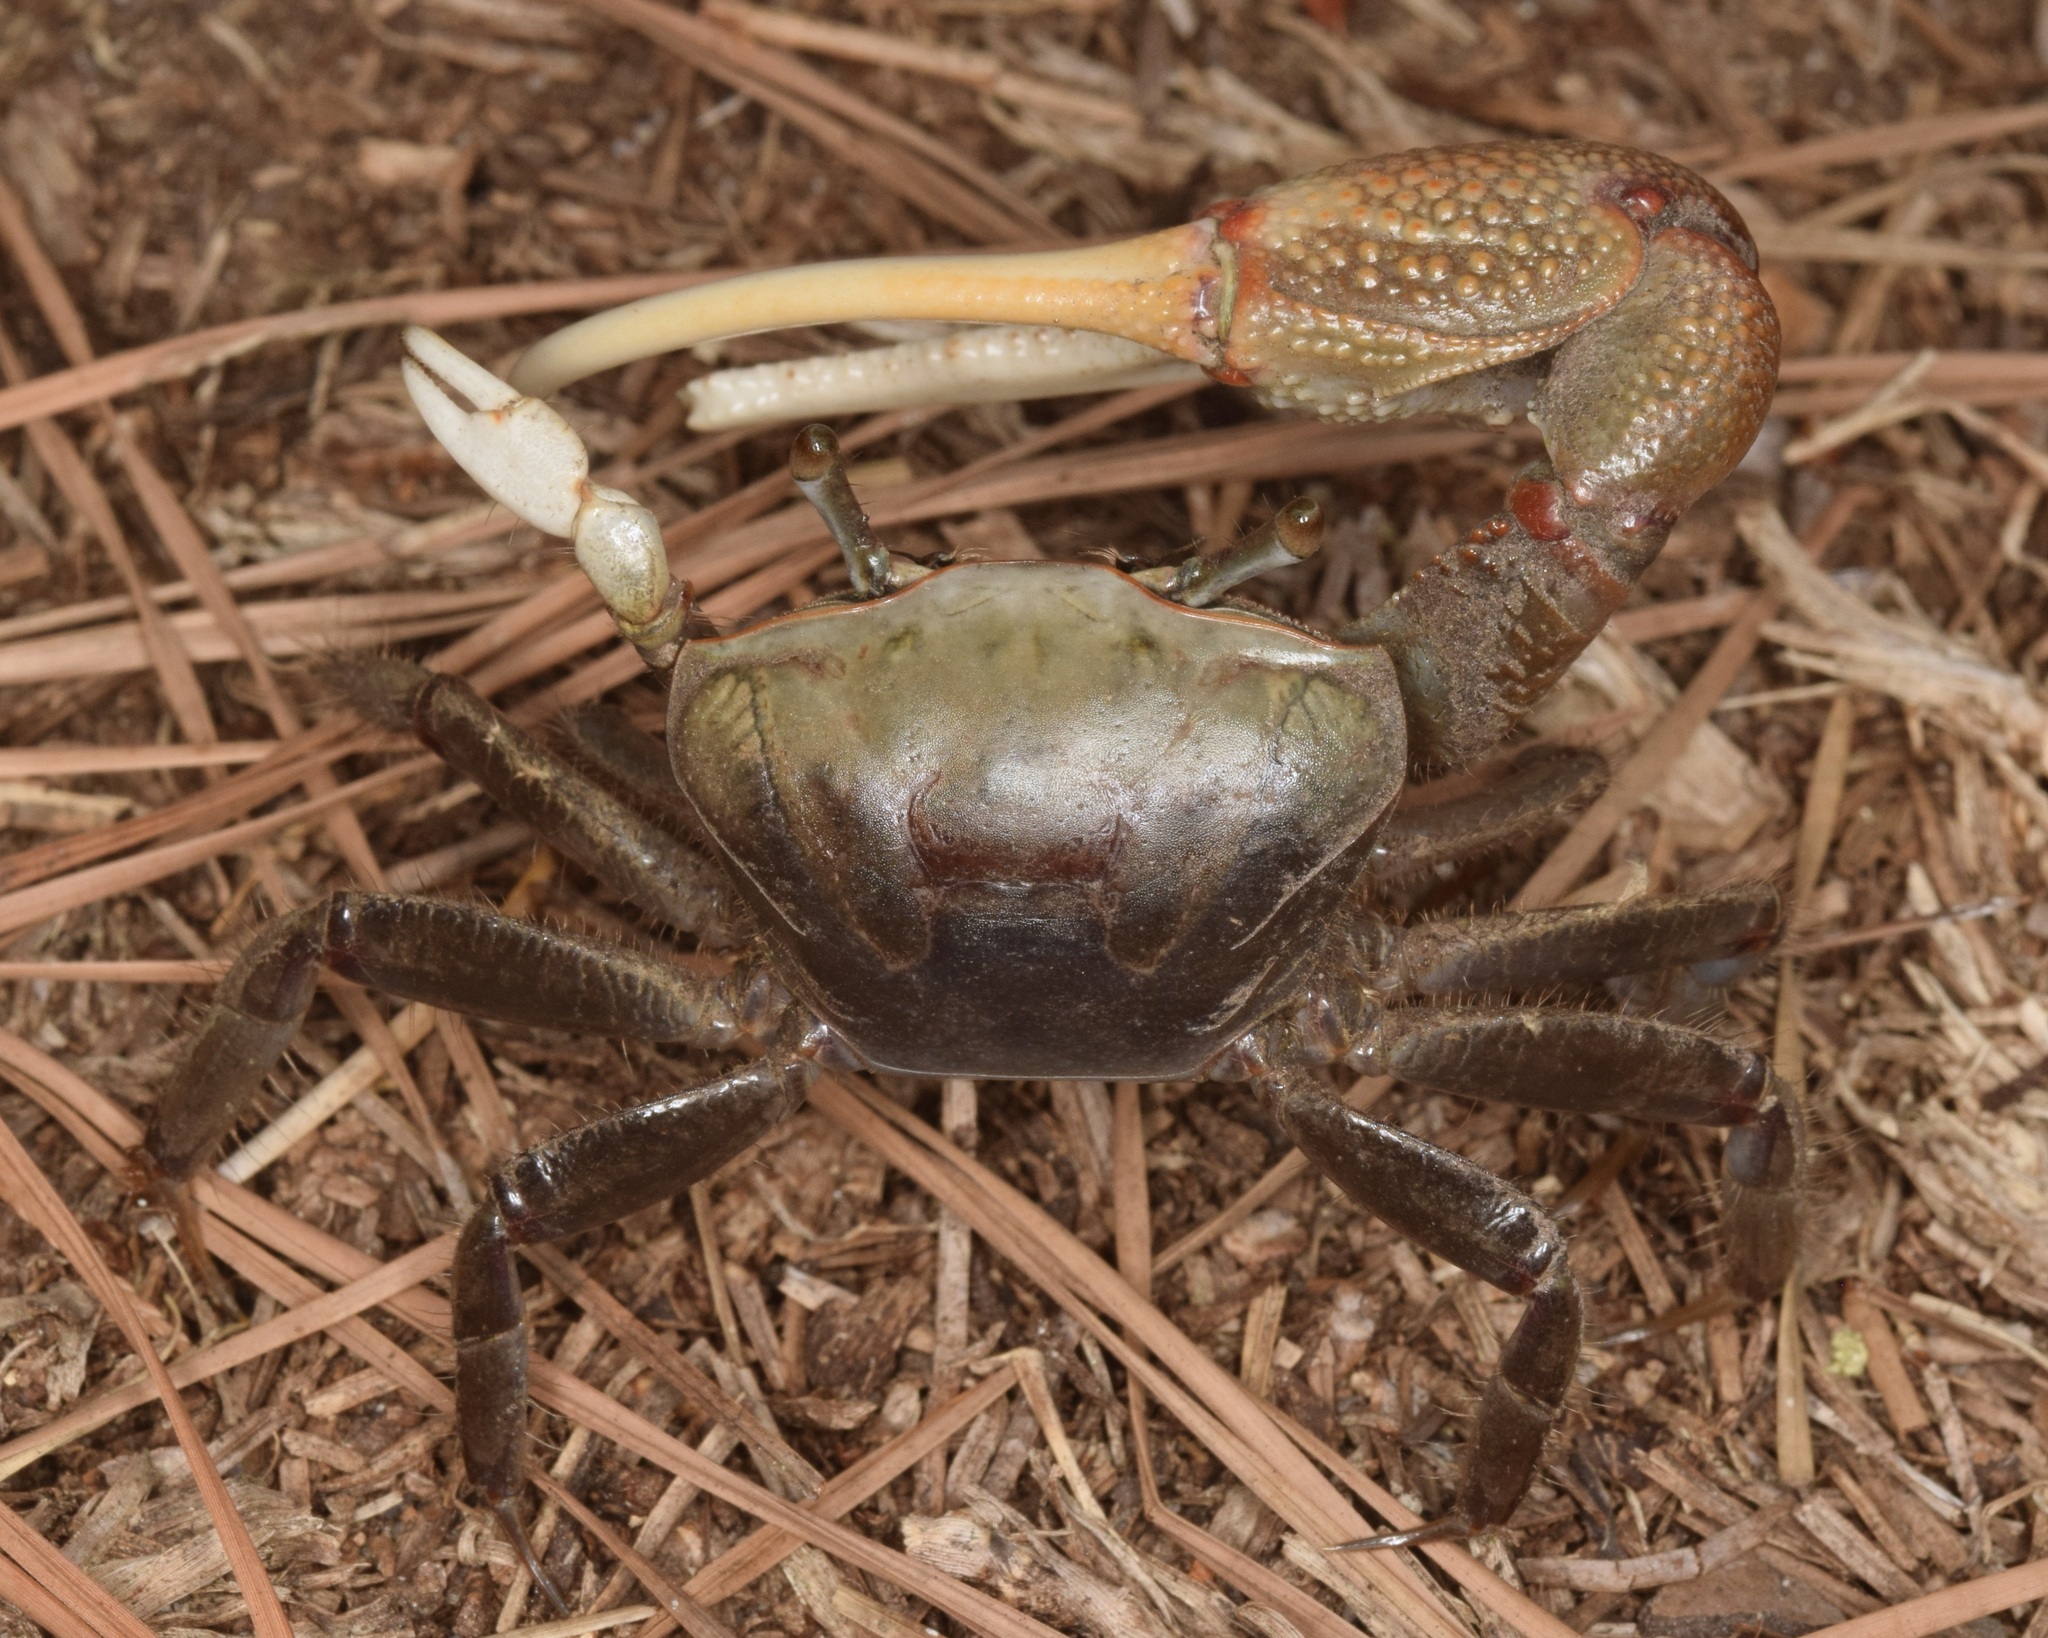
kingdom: Animalia
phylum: Arthropoda
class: Malacostraca
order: Decapoda
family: Ocypodidae
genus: Minuca
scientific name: Minuca minax
